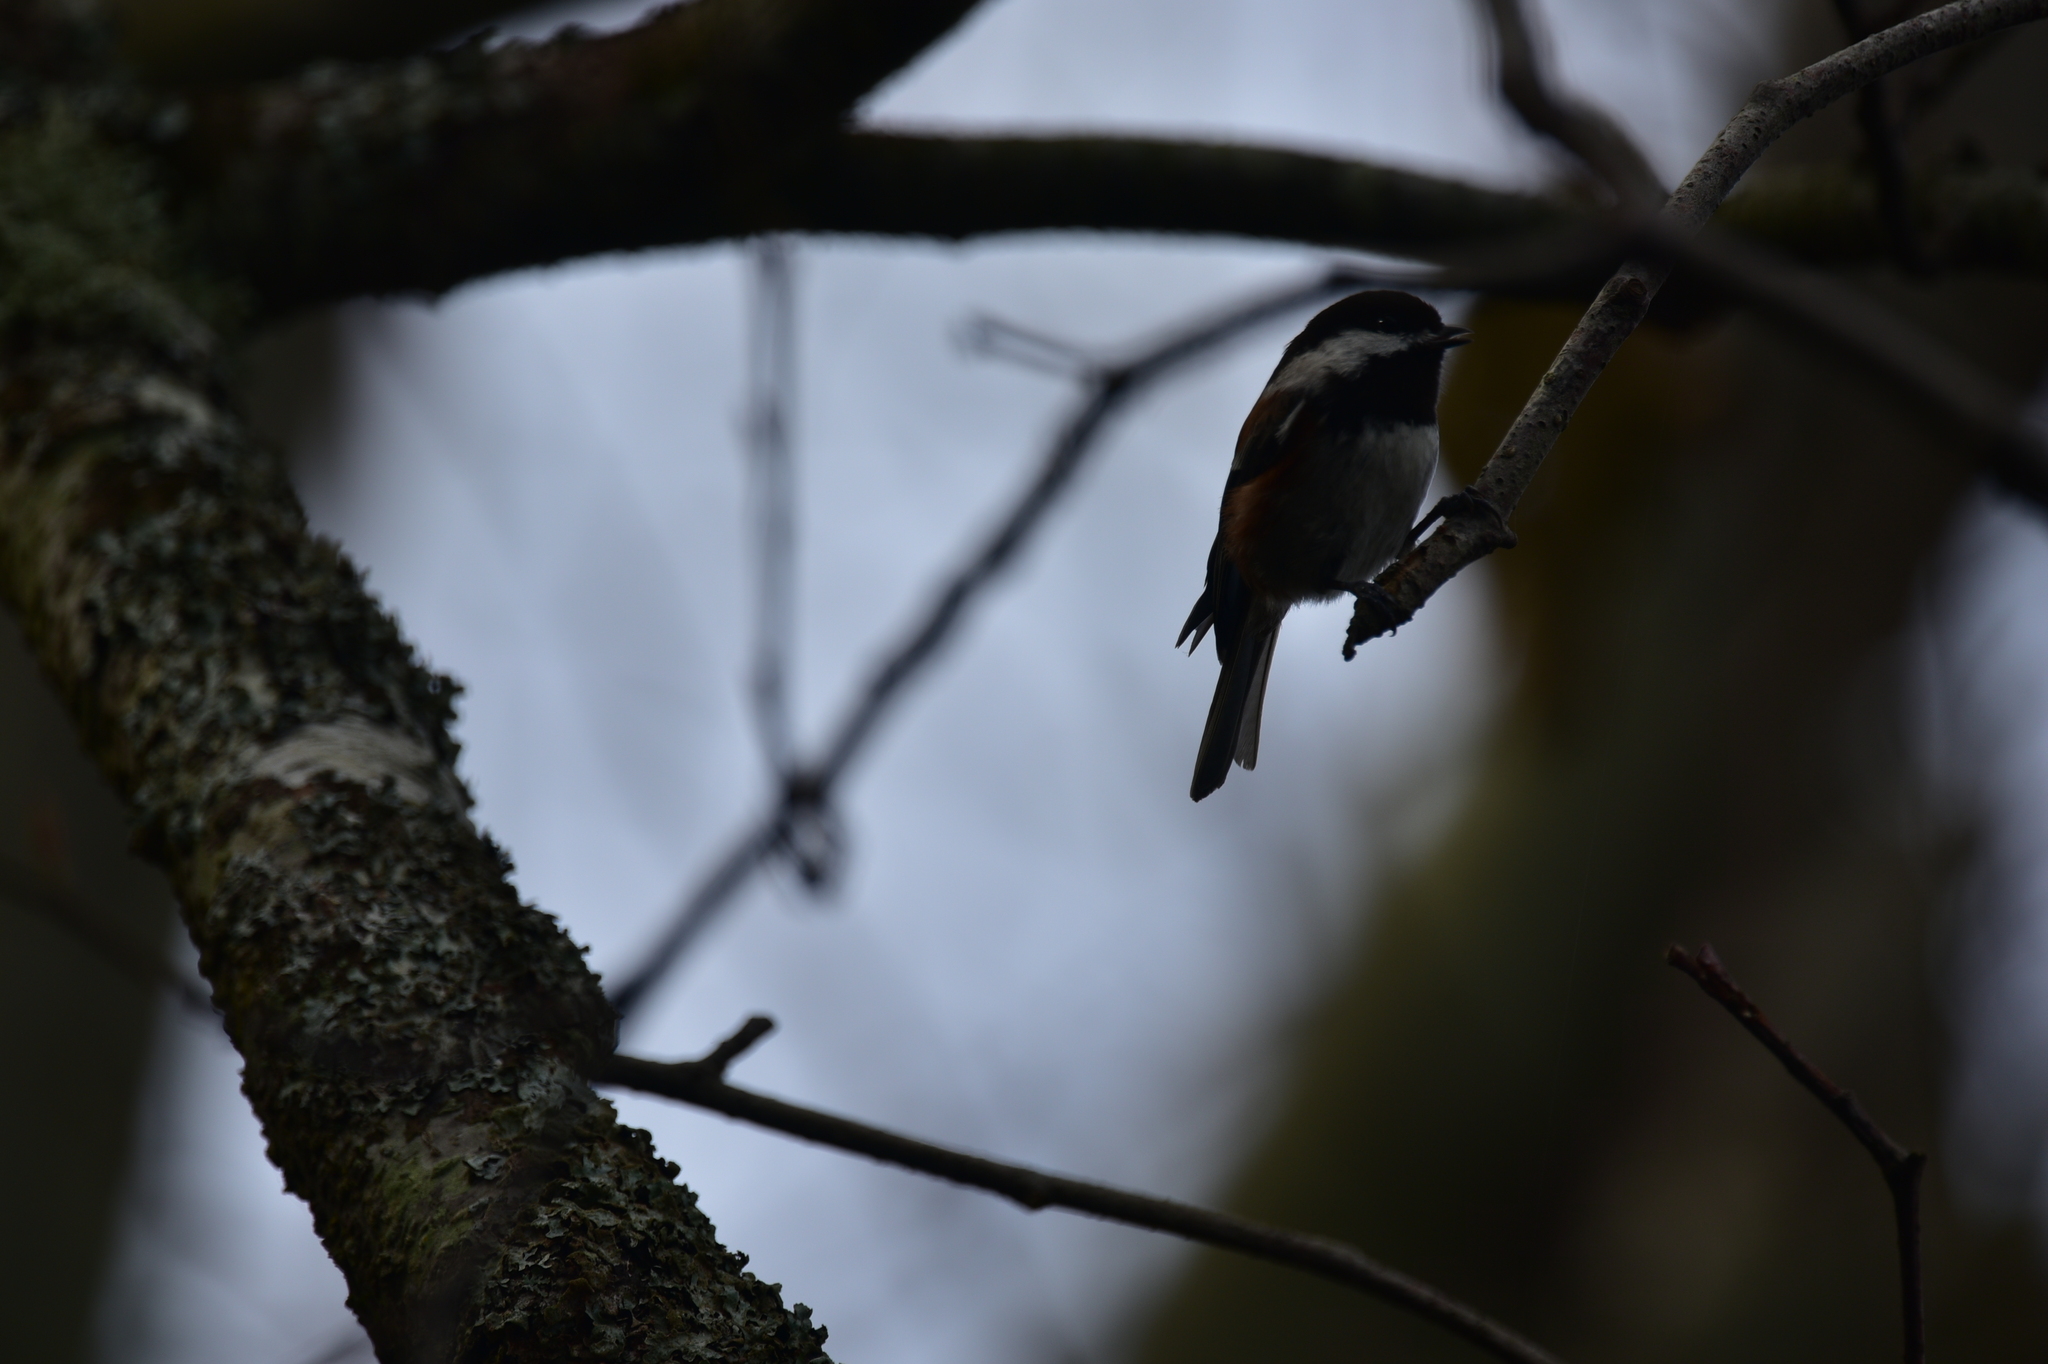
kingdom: Animalia
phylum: Chordata
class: Aves
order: Passeriformes
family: Paridae
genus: Poecile
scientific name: Poecile rufescens
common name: Chestnut-backed chickadee
